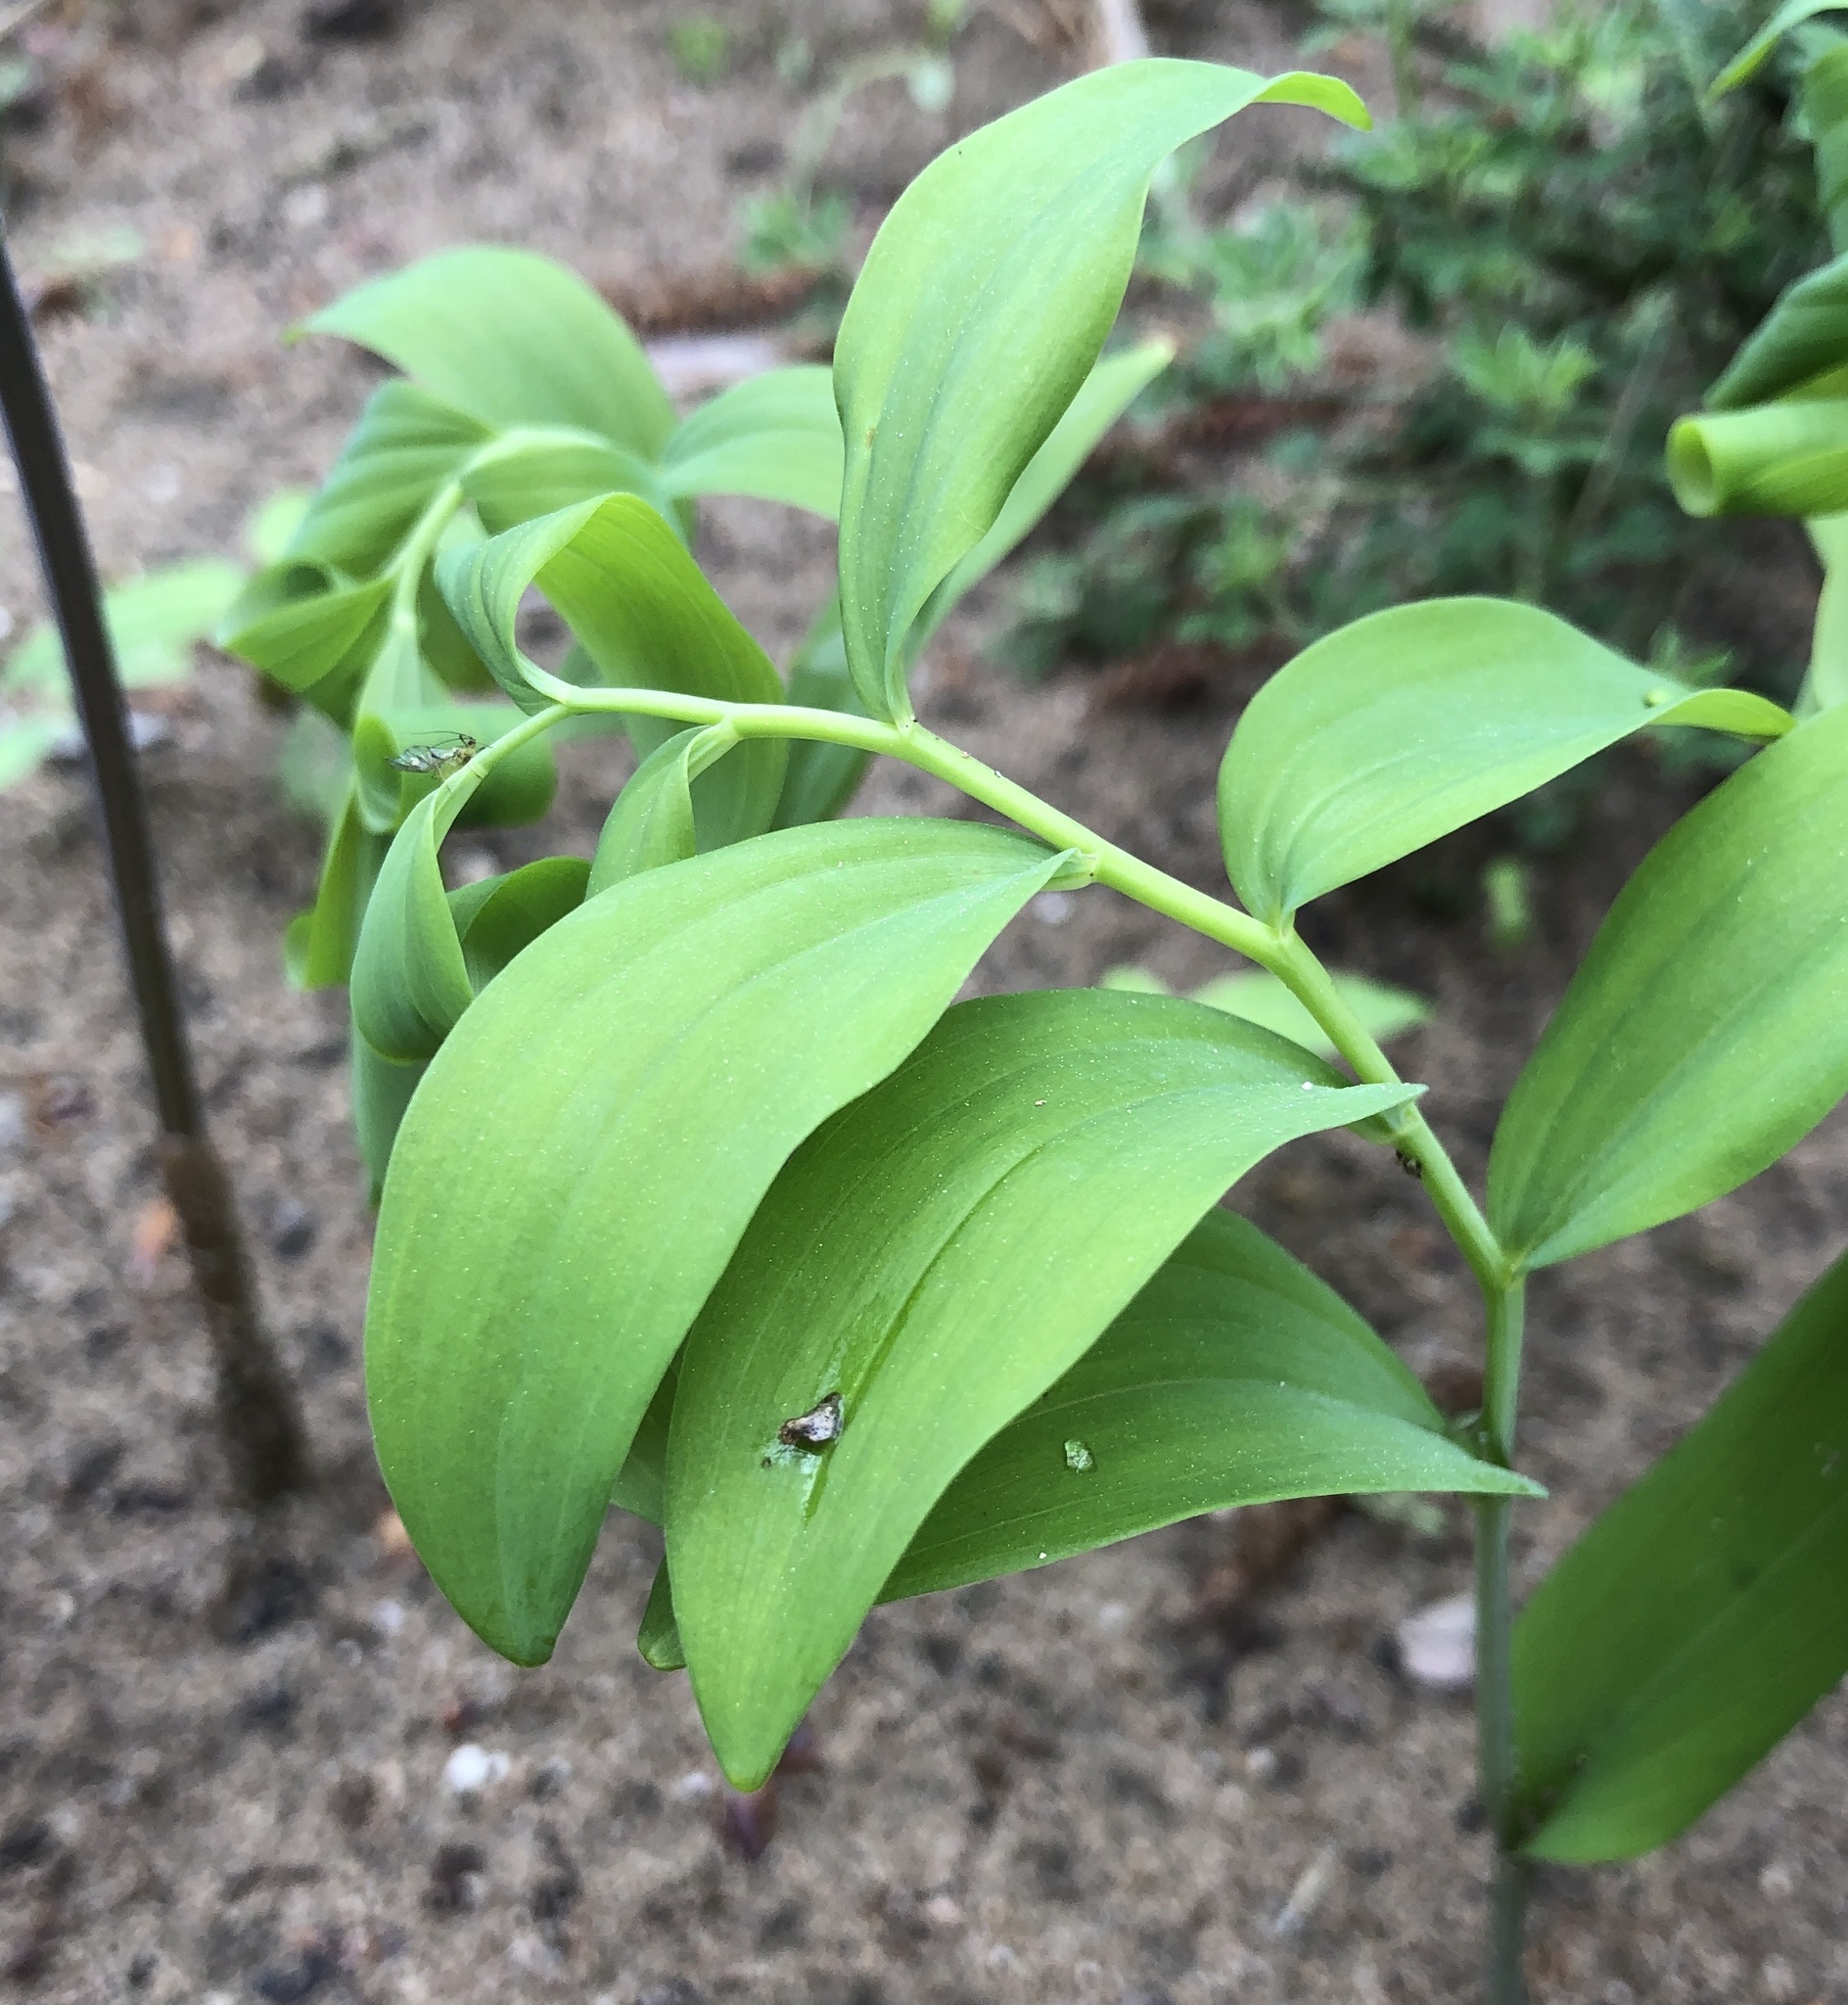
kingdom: Plantae
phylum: Tracheophyta
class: Liliopsida
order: Asparagales
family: Asparagaceae
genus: Polygonatum
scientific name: Polygonatum multiflorum
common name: Solomon's-seal
